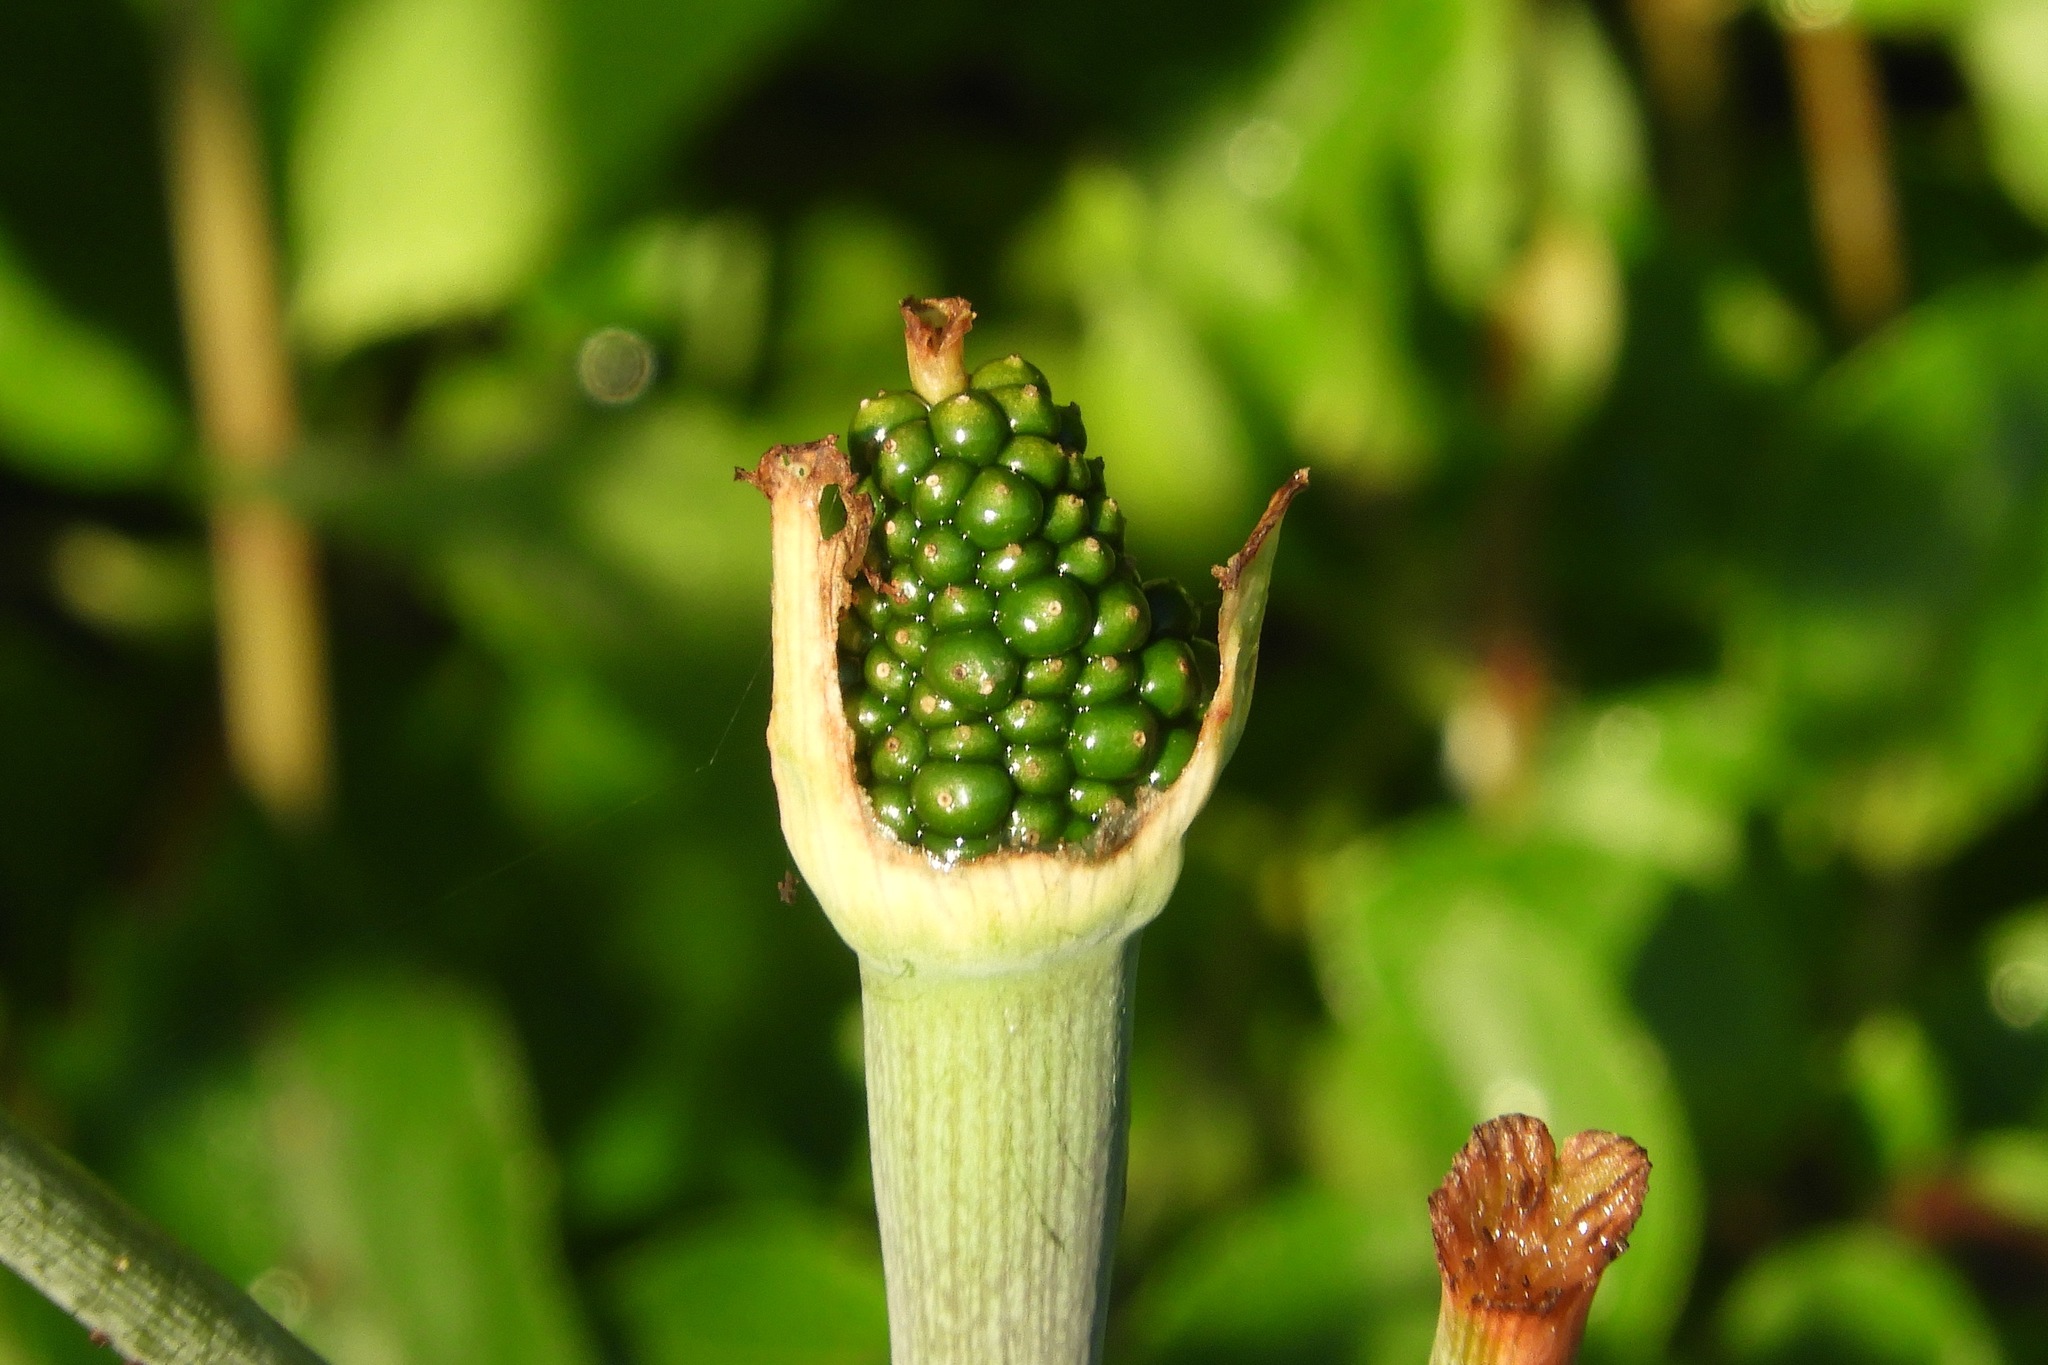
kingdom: Plantae
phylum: Tracheophyta
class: Liliopsida
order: Alismatales
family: Araceae
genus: Arisaema
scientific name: Arisaema triphyllum
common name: Jack-in-the-pulpit
